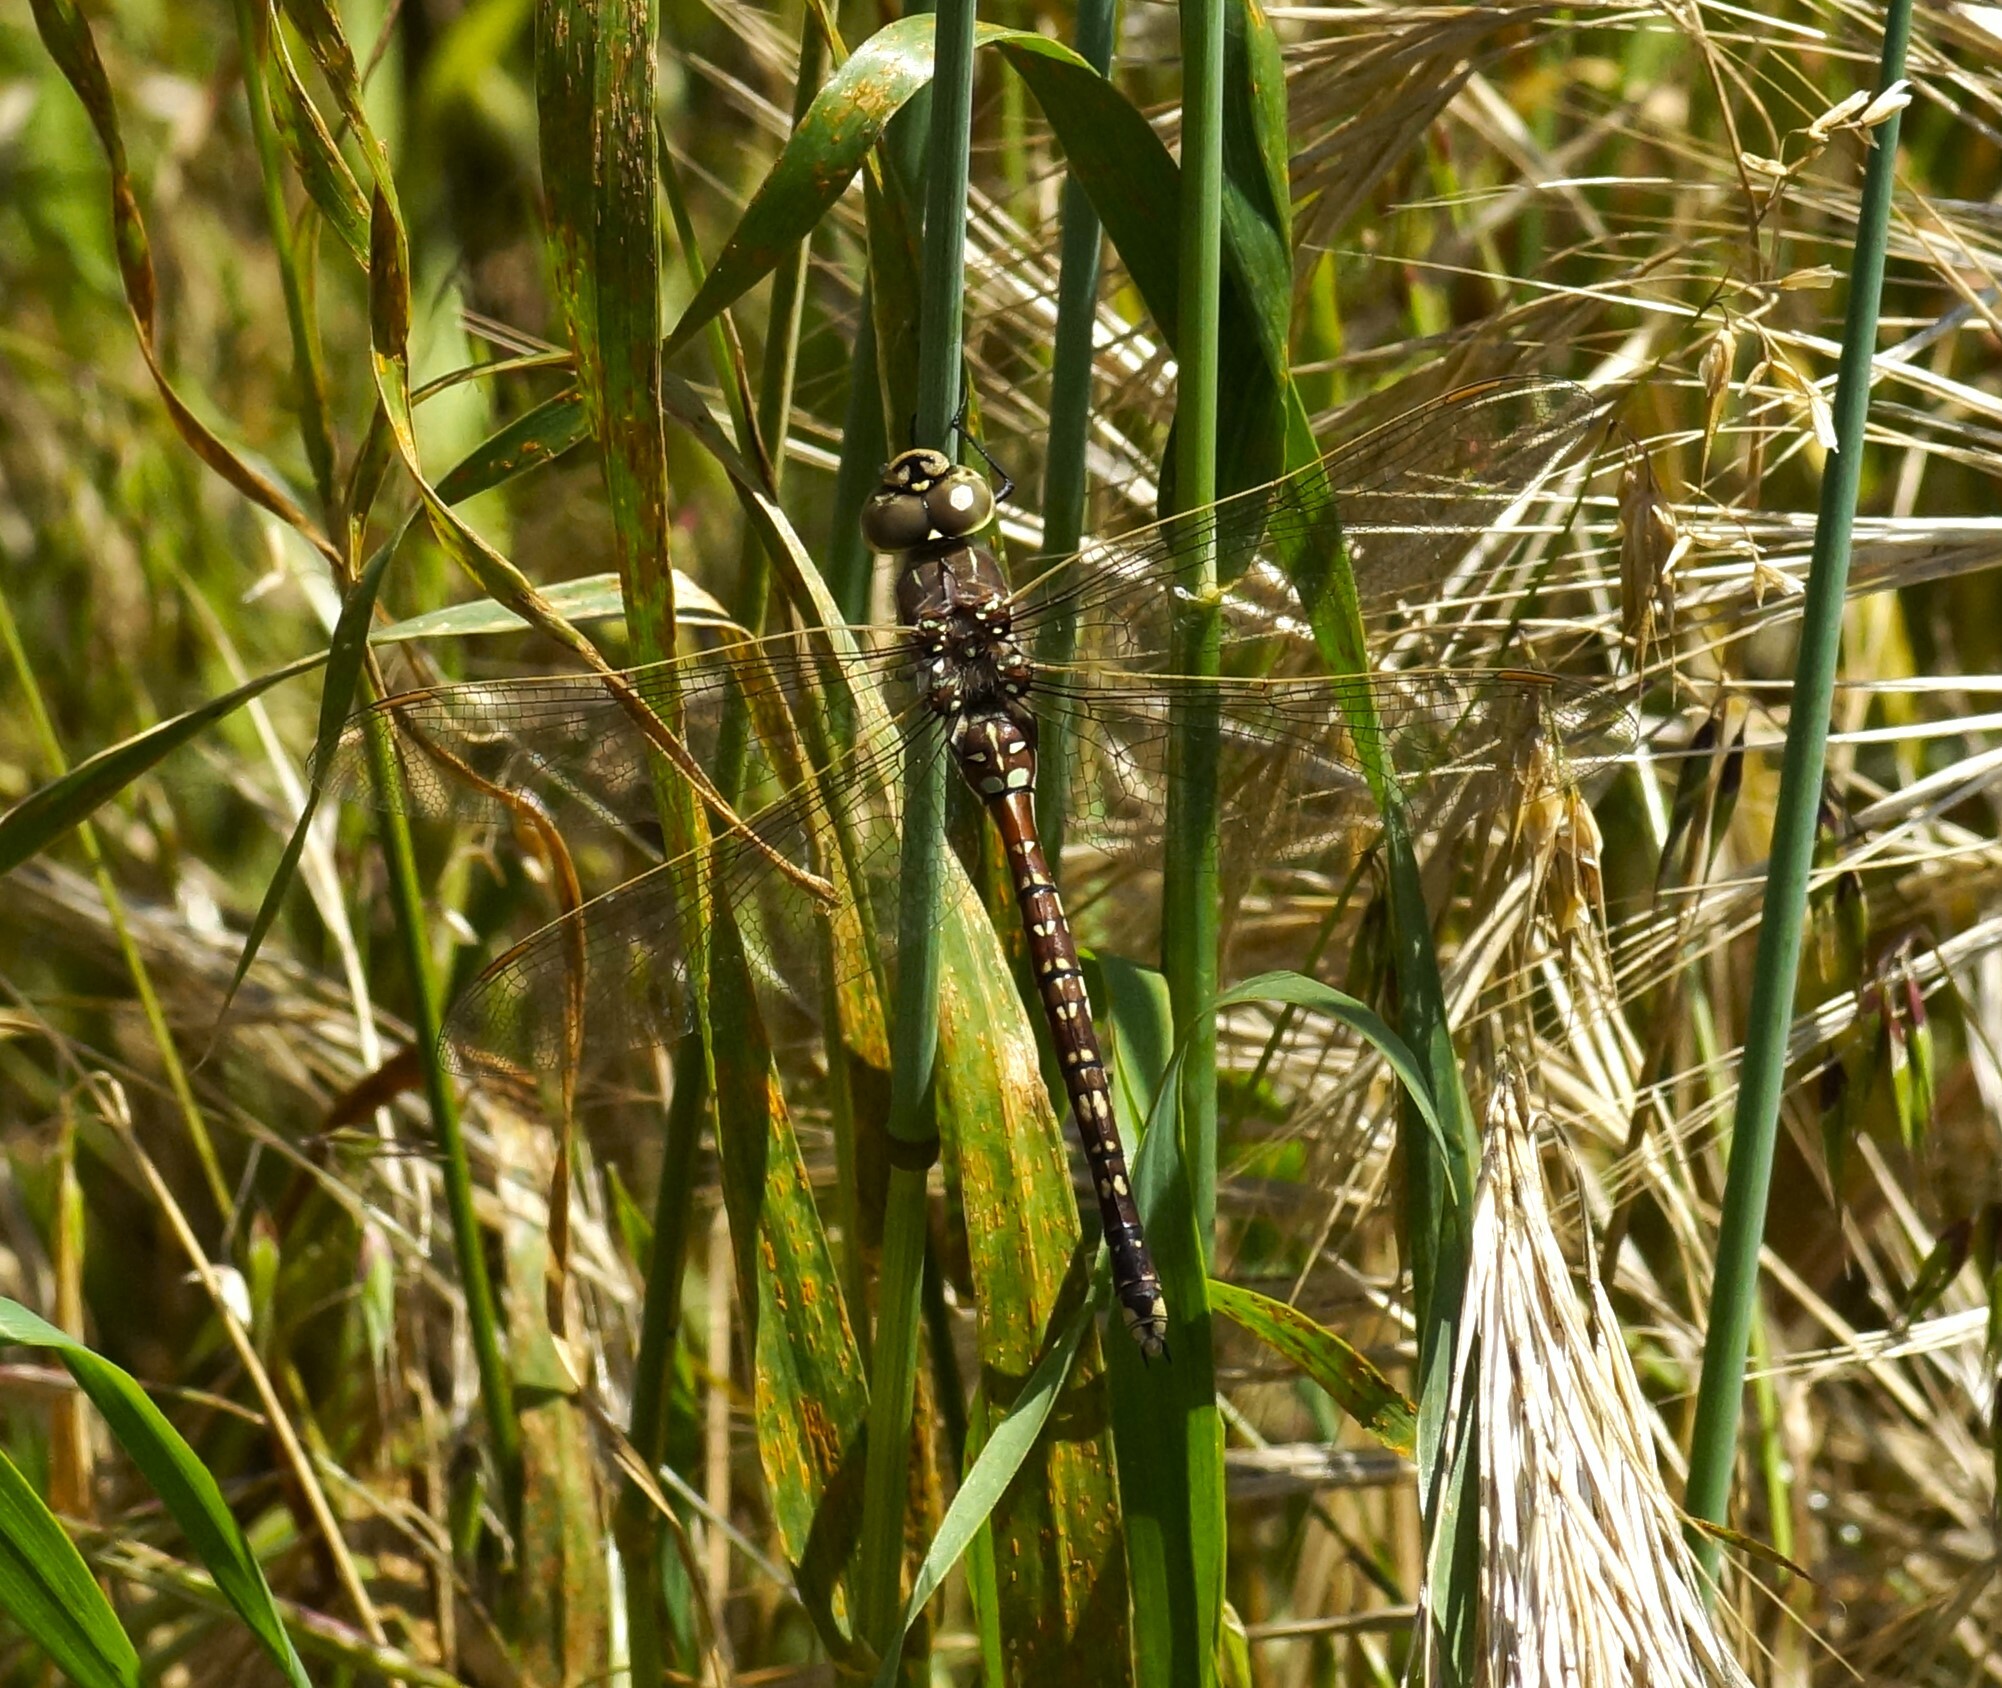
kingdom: Animalia
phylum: Arthropoda
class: Insecta
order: Odonata
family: Aeshnidae
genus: Aeshna
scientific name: Aeshna brevistyla
